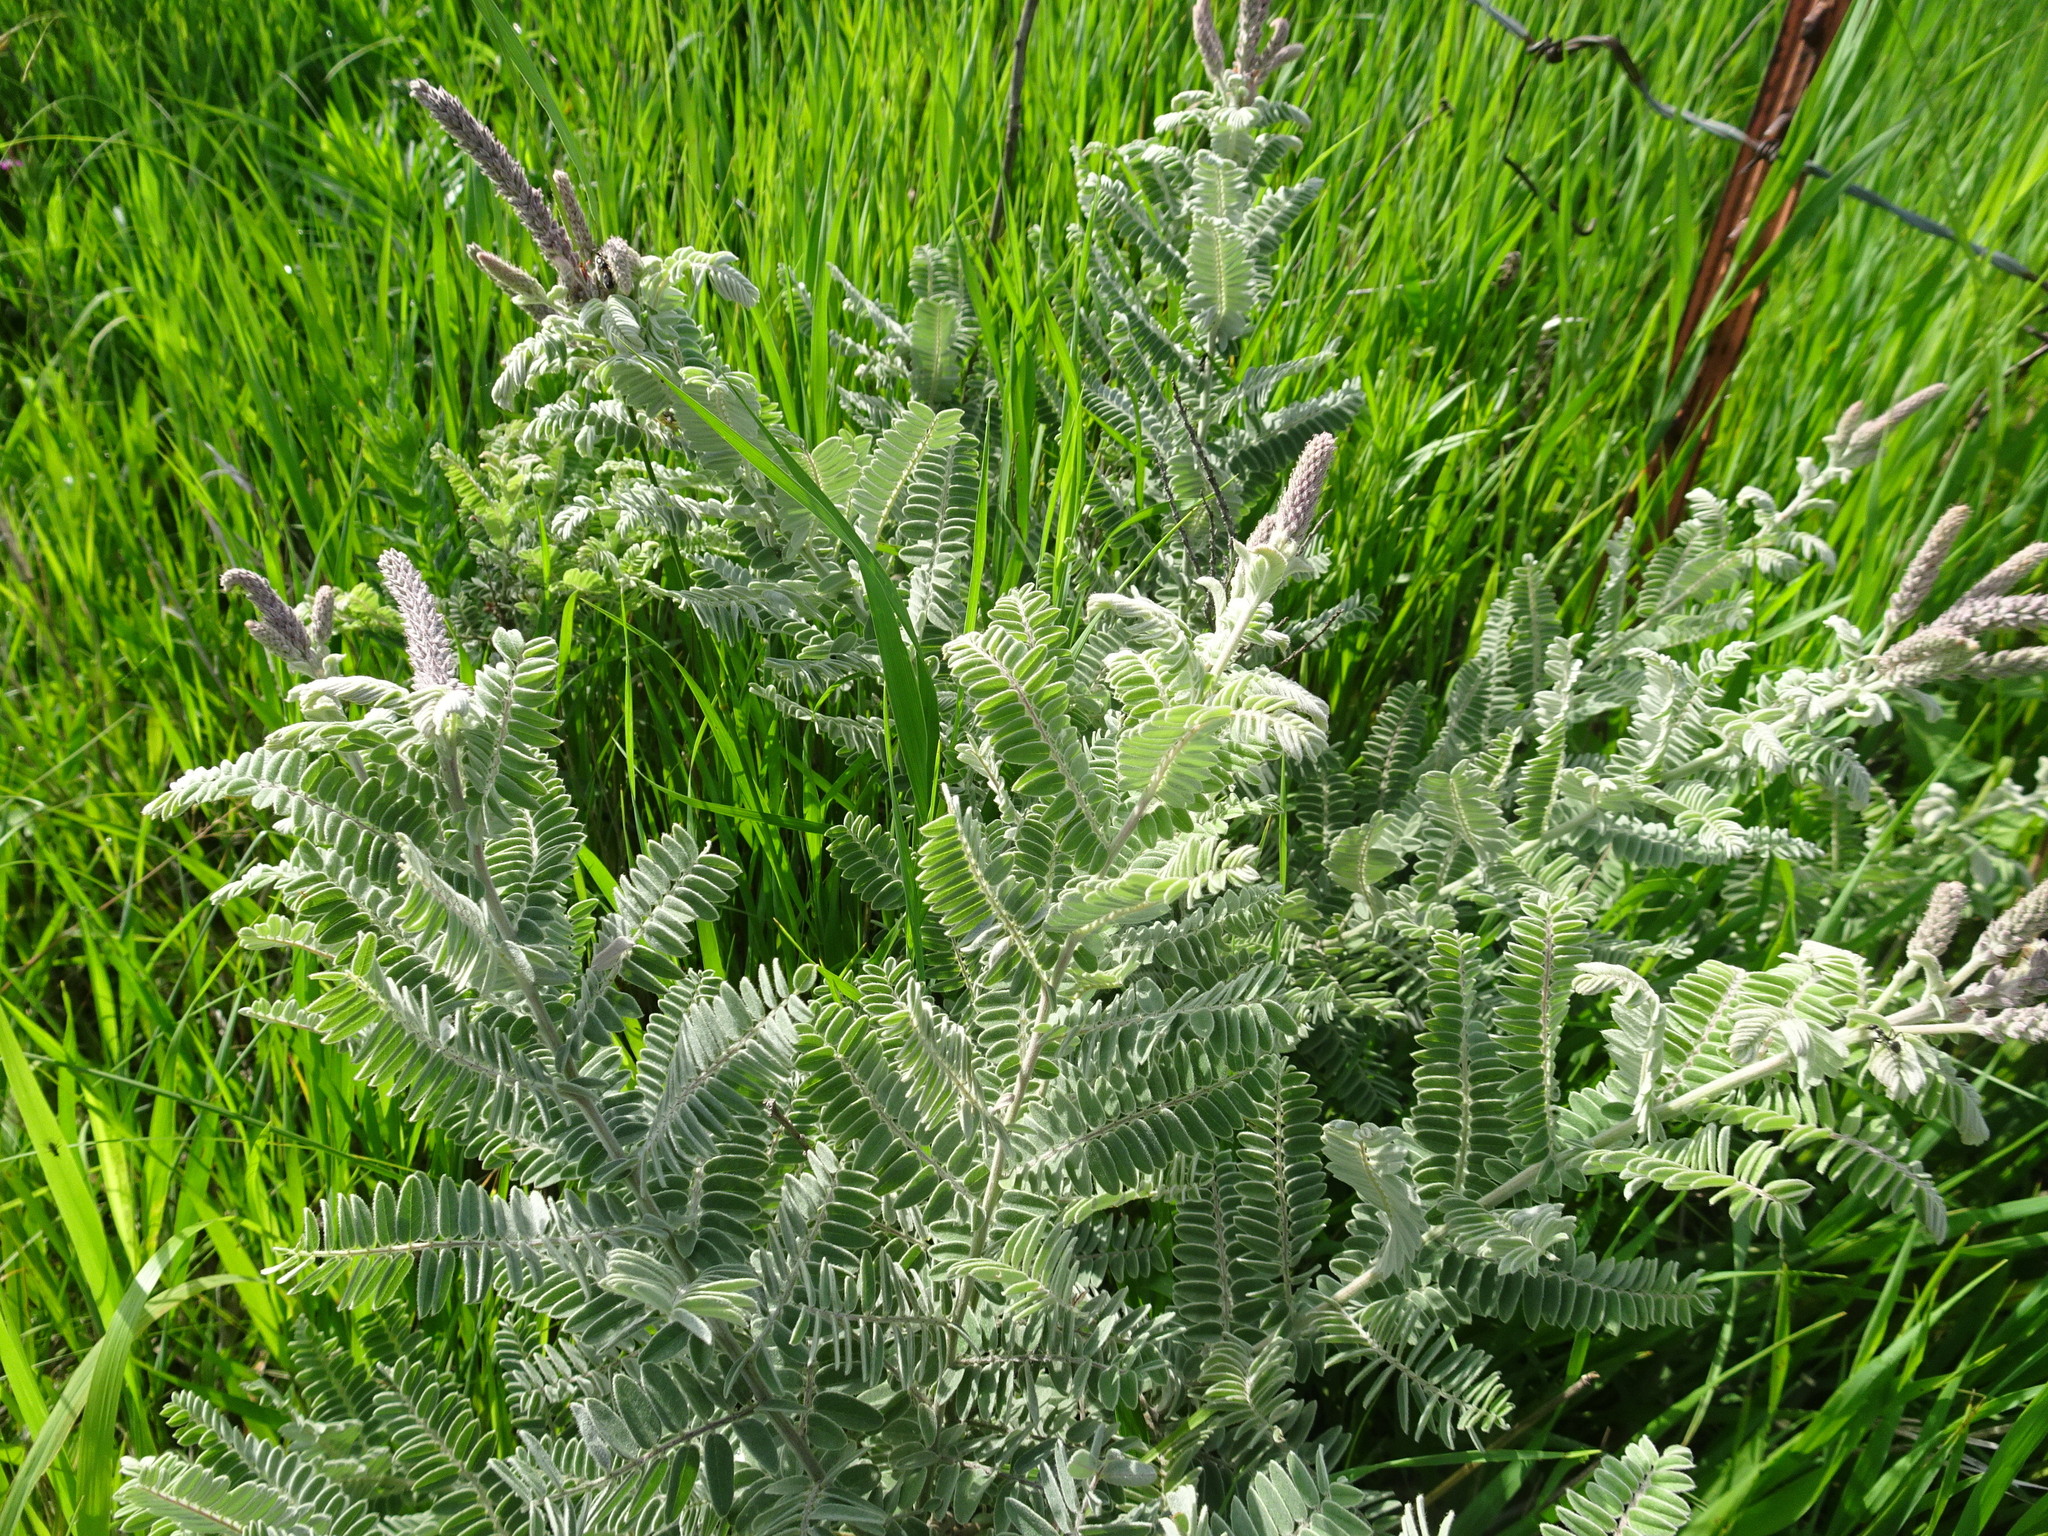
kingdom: Plantae
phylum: Tracheophyta
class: Magnoliopsida
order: Fabales
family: Fabaceae
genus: Amorpha
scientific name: Amorpha canescens
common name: Leadplant
